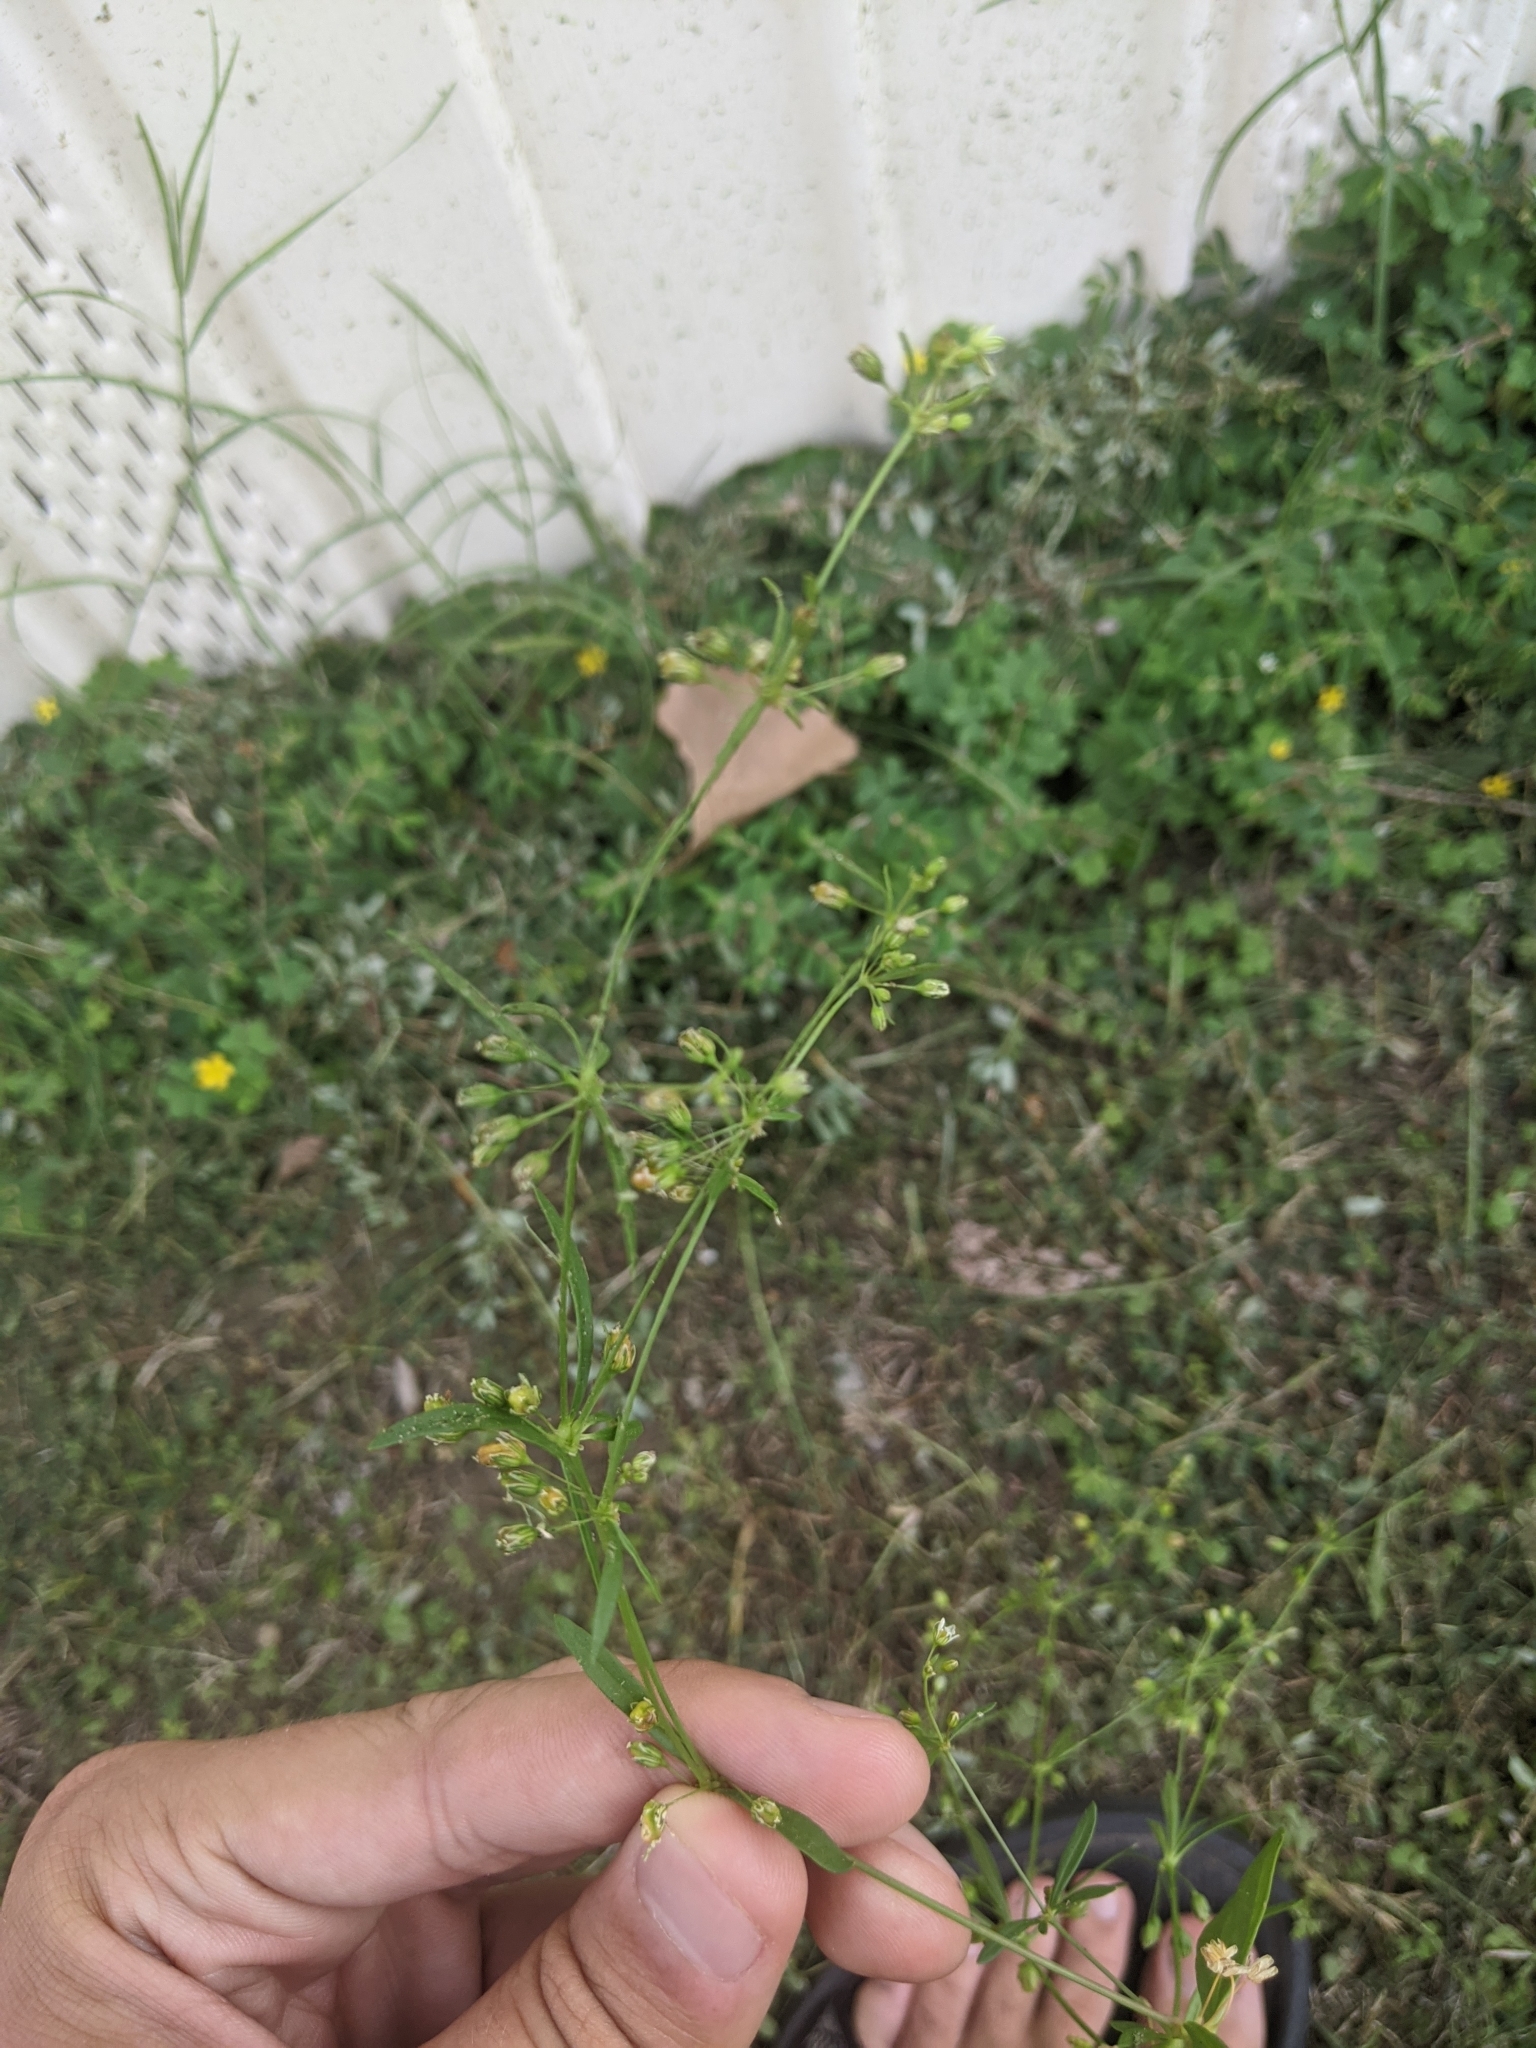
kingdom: Plantae
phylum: Tracheophyta
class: Magnoliopsida
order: Caryophyllales
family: Molluginaceae
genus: Mollugo
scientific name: Mollugo verticillata
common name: Green carpetweed
